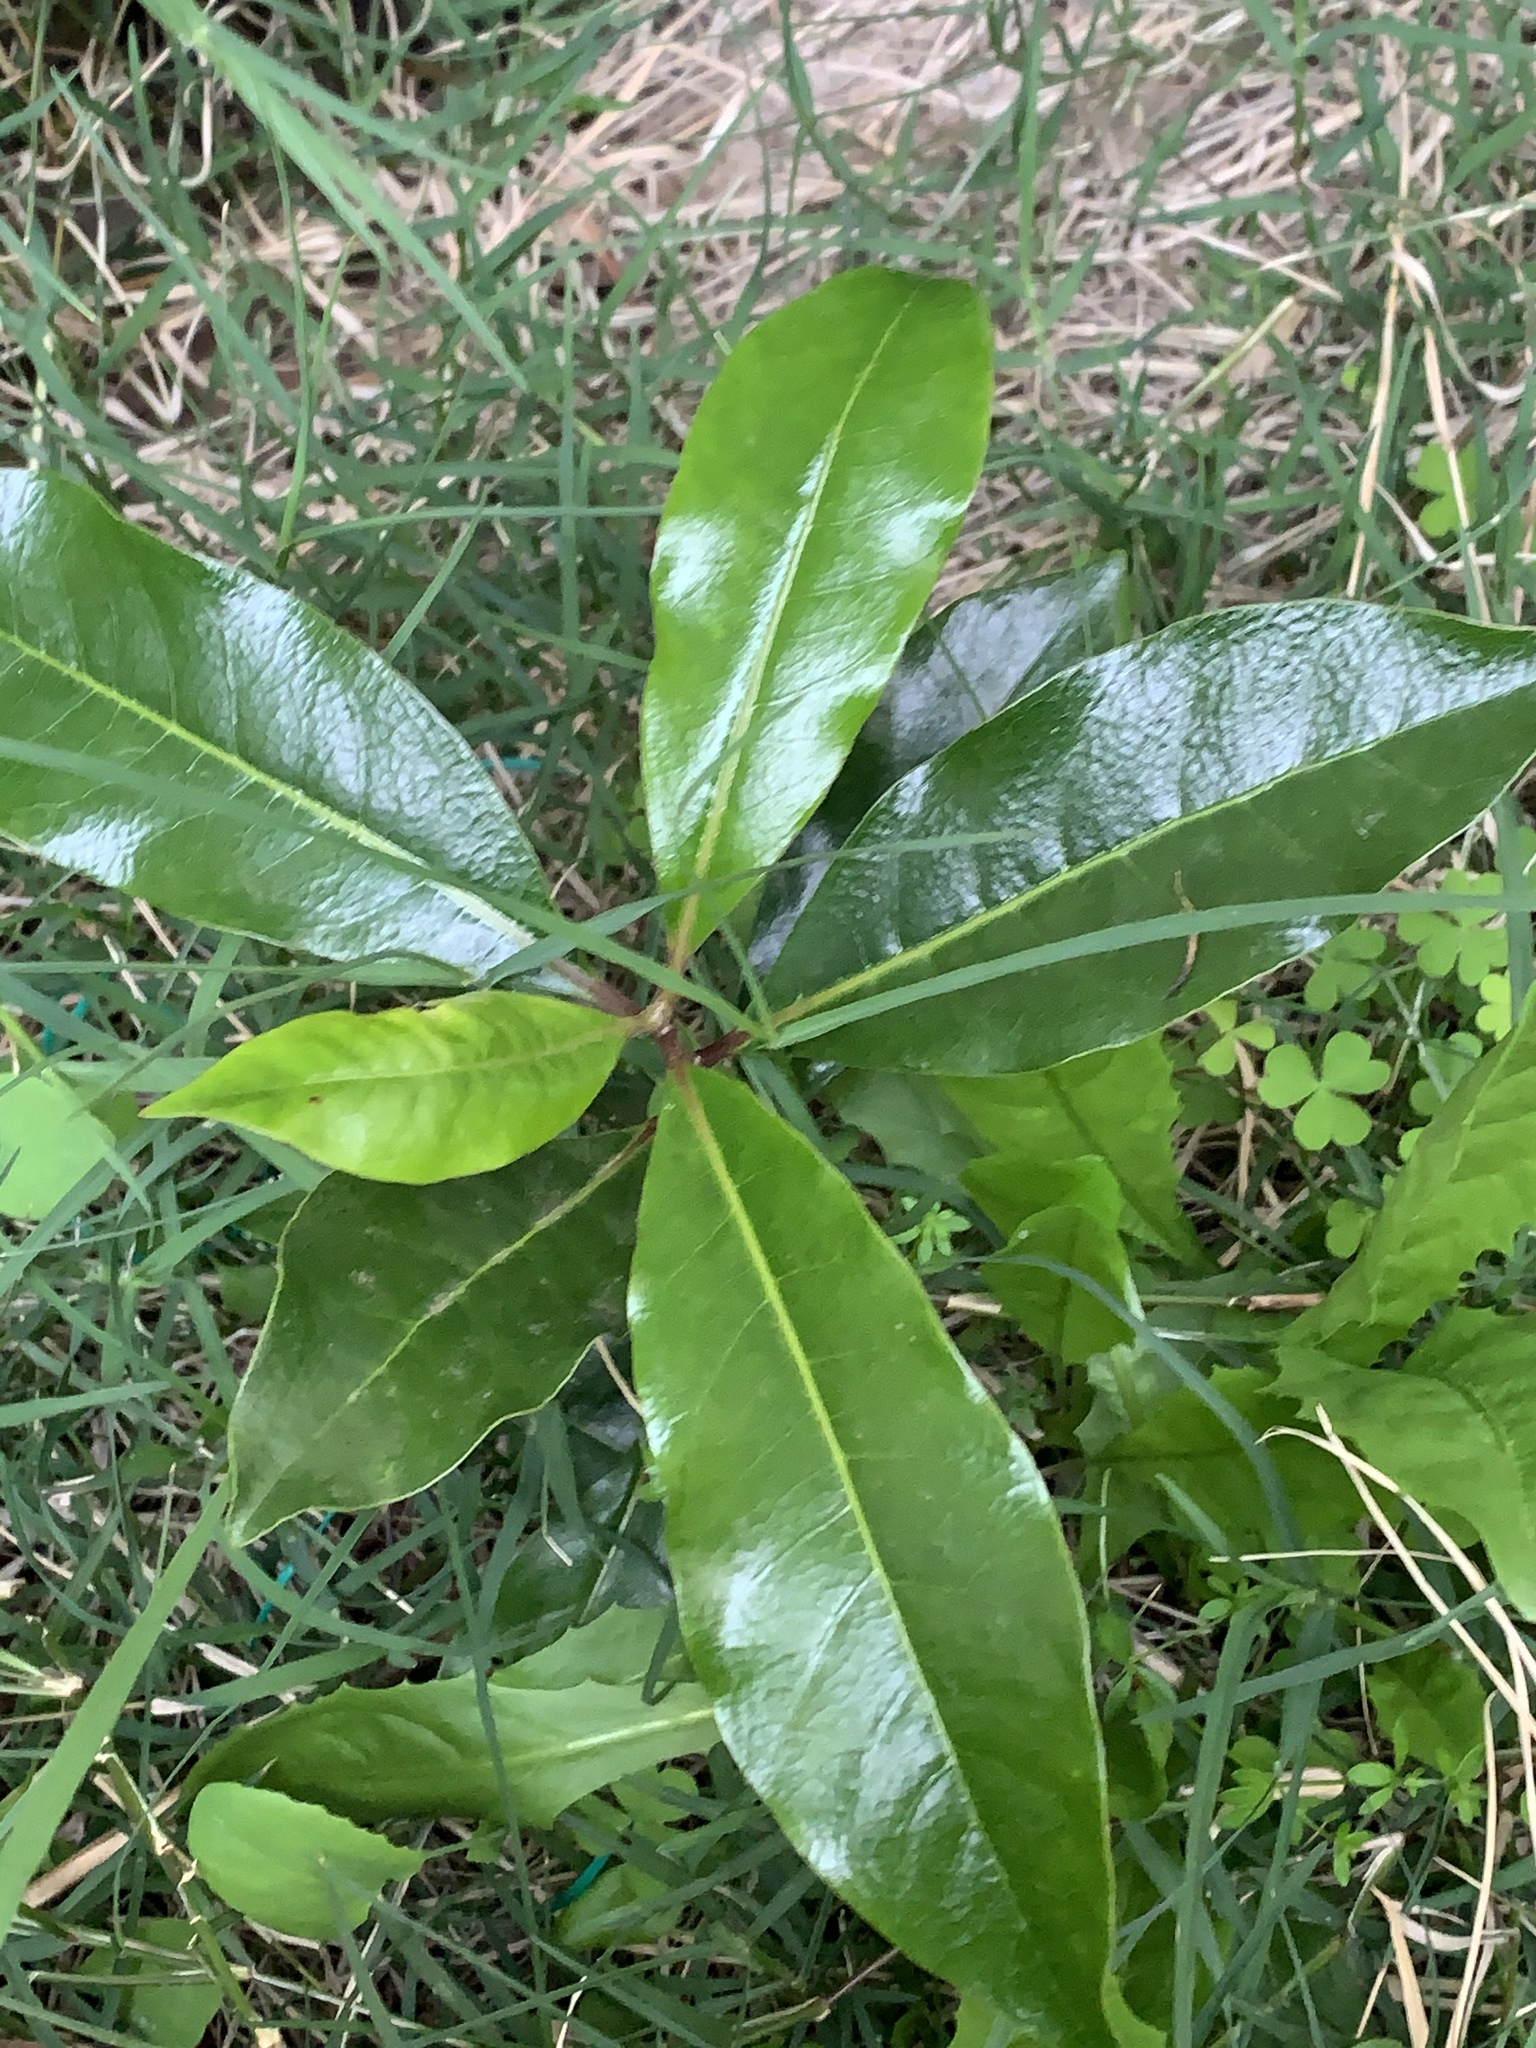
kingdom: Plantae
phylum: Tracheophyta
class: Magnoliopsida
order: Apiales
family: Pittosporaceae
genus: Pittosporum
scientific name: Pittosporum undulatum
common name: Australian cheesewood
